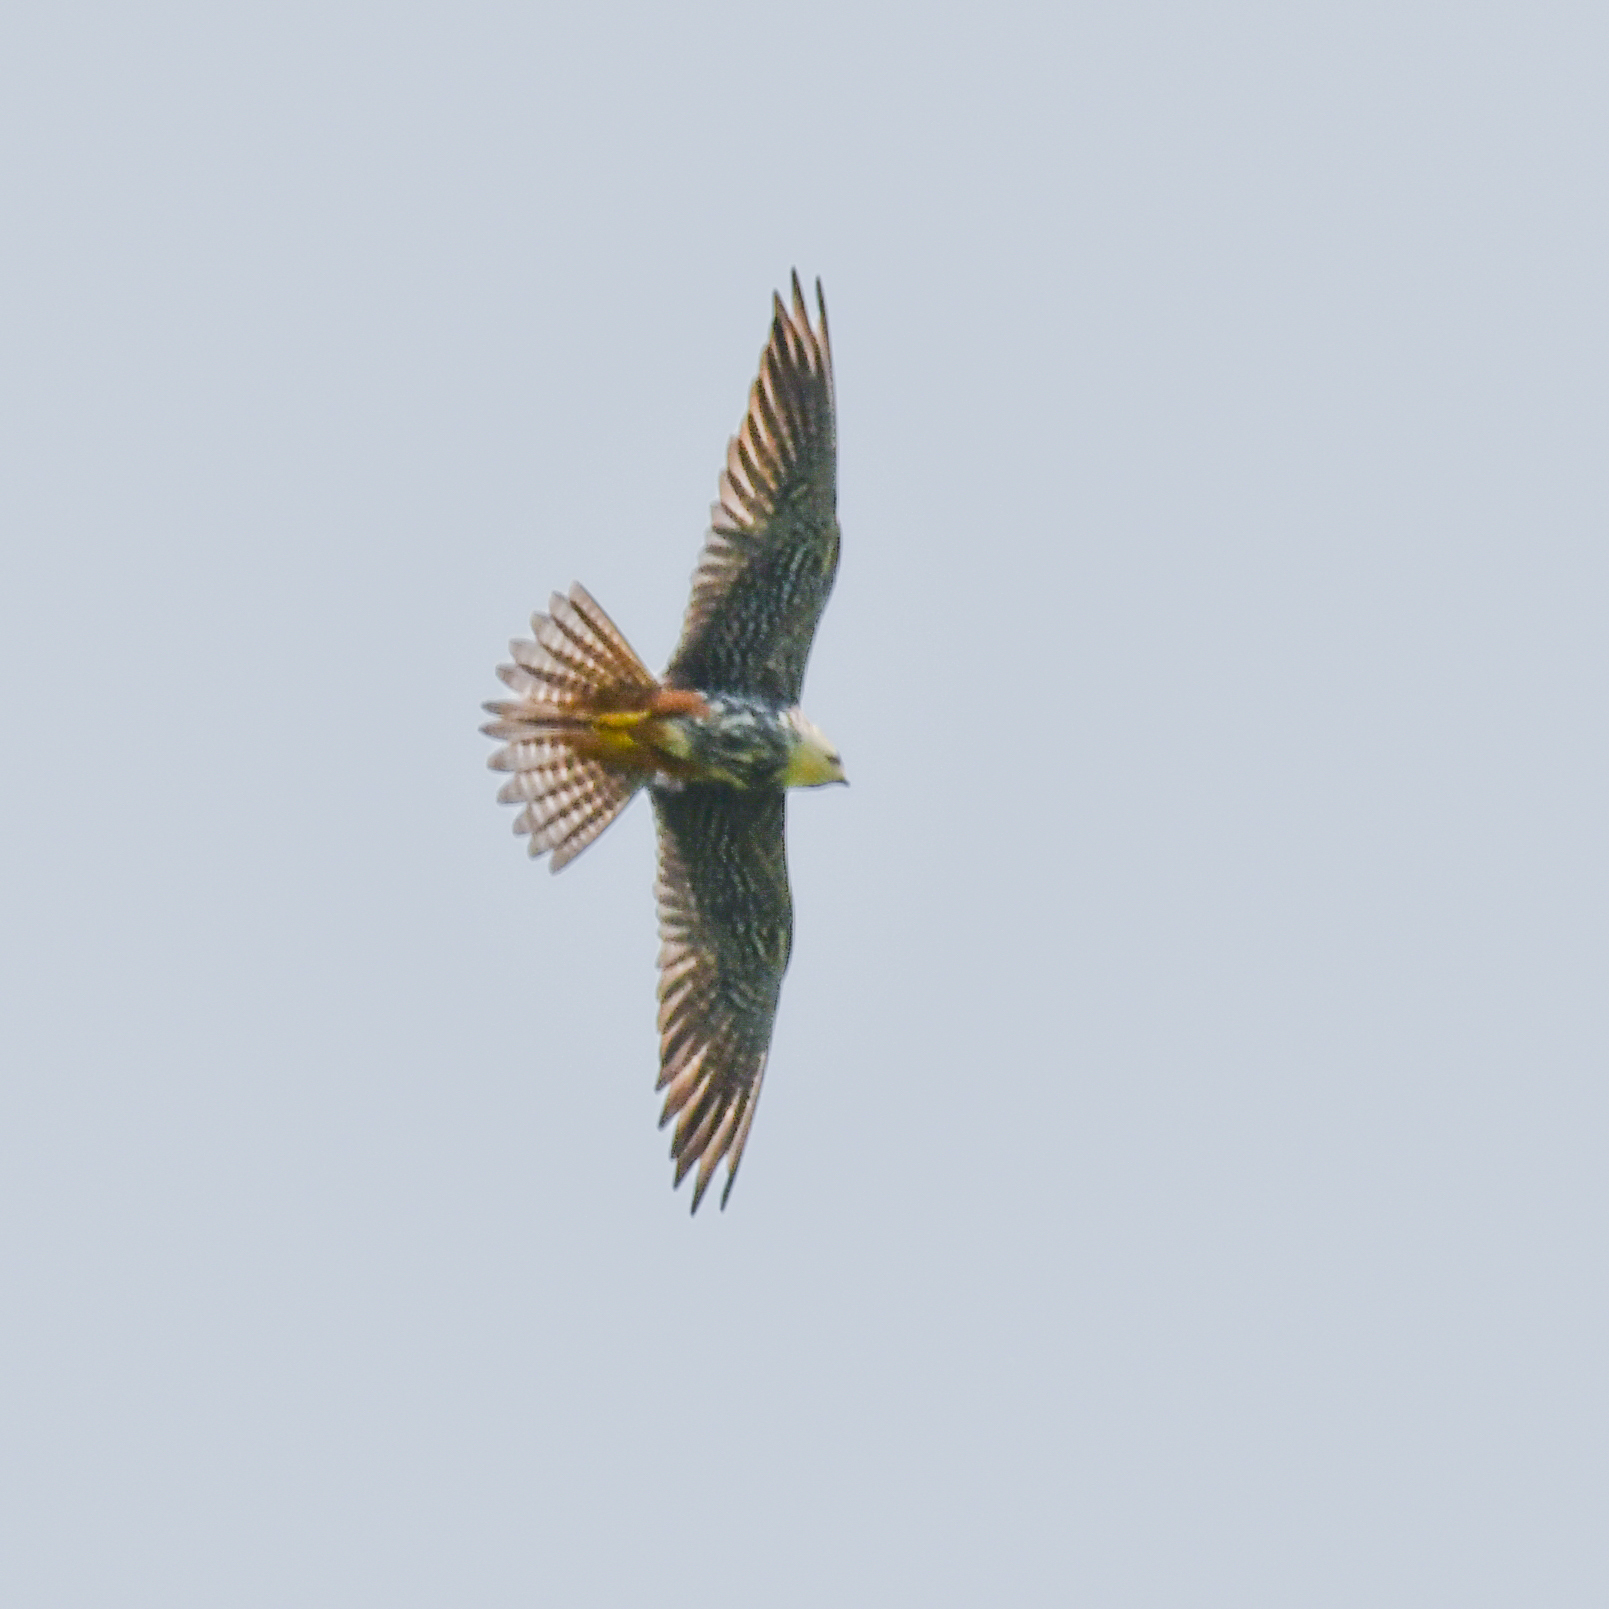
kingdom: Animalia
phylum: Chordata
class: Aves
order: Falconiformes
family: Falconidae
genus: Falco
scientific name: Falco subbuteo
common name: Eurasian hobby
